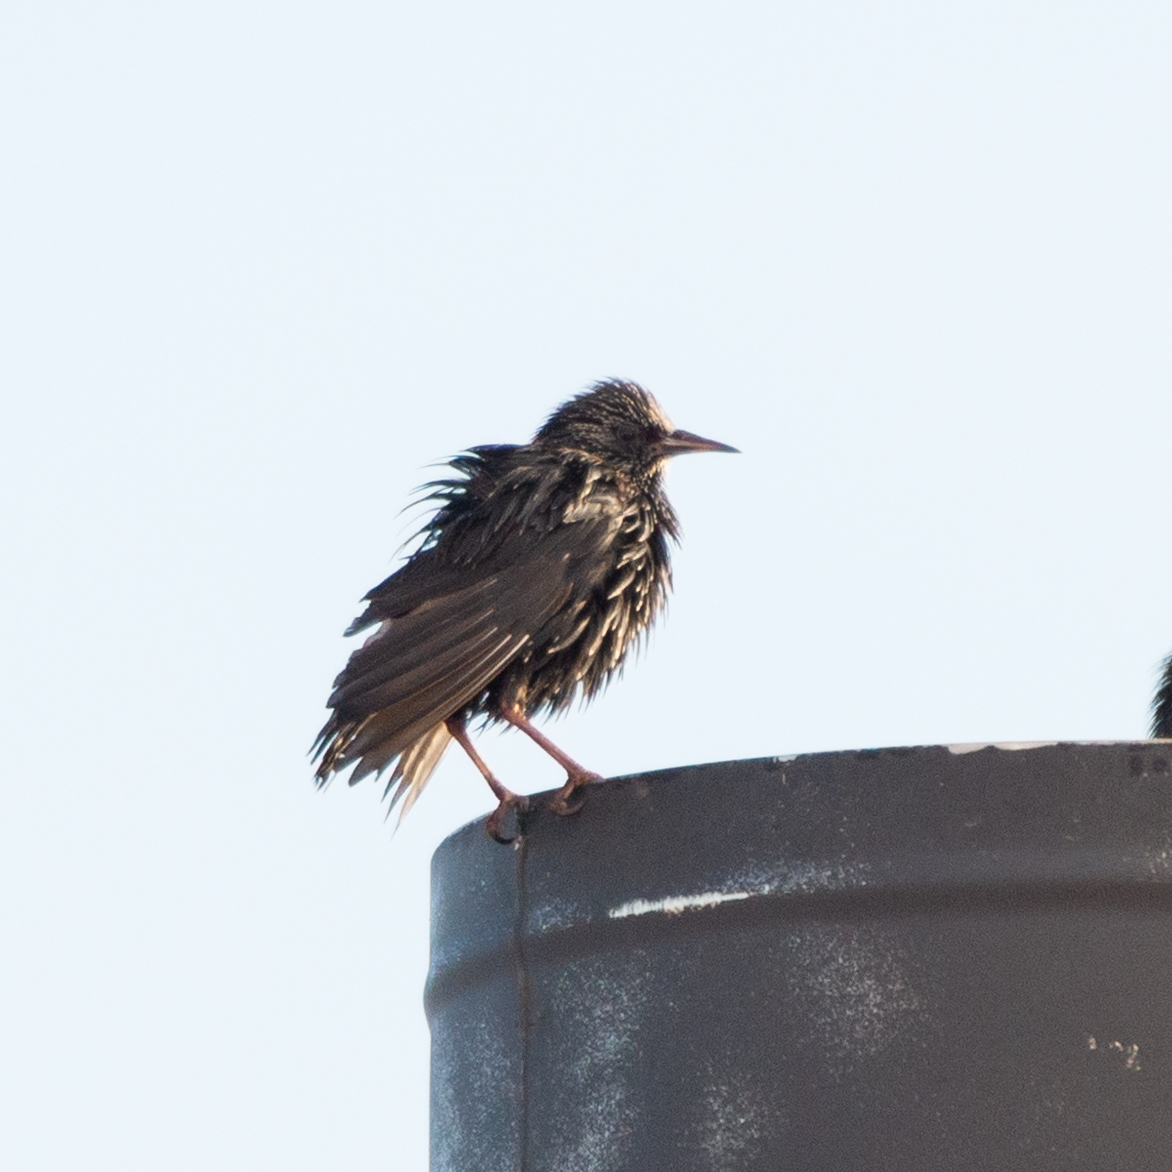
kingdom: Animalia
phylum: Chordata
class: Aves
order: Passeriformes
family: Sturnidae
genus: Sturnus
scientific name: Sturnus unicolor
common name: Spotless starling
